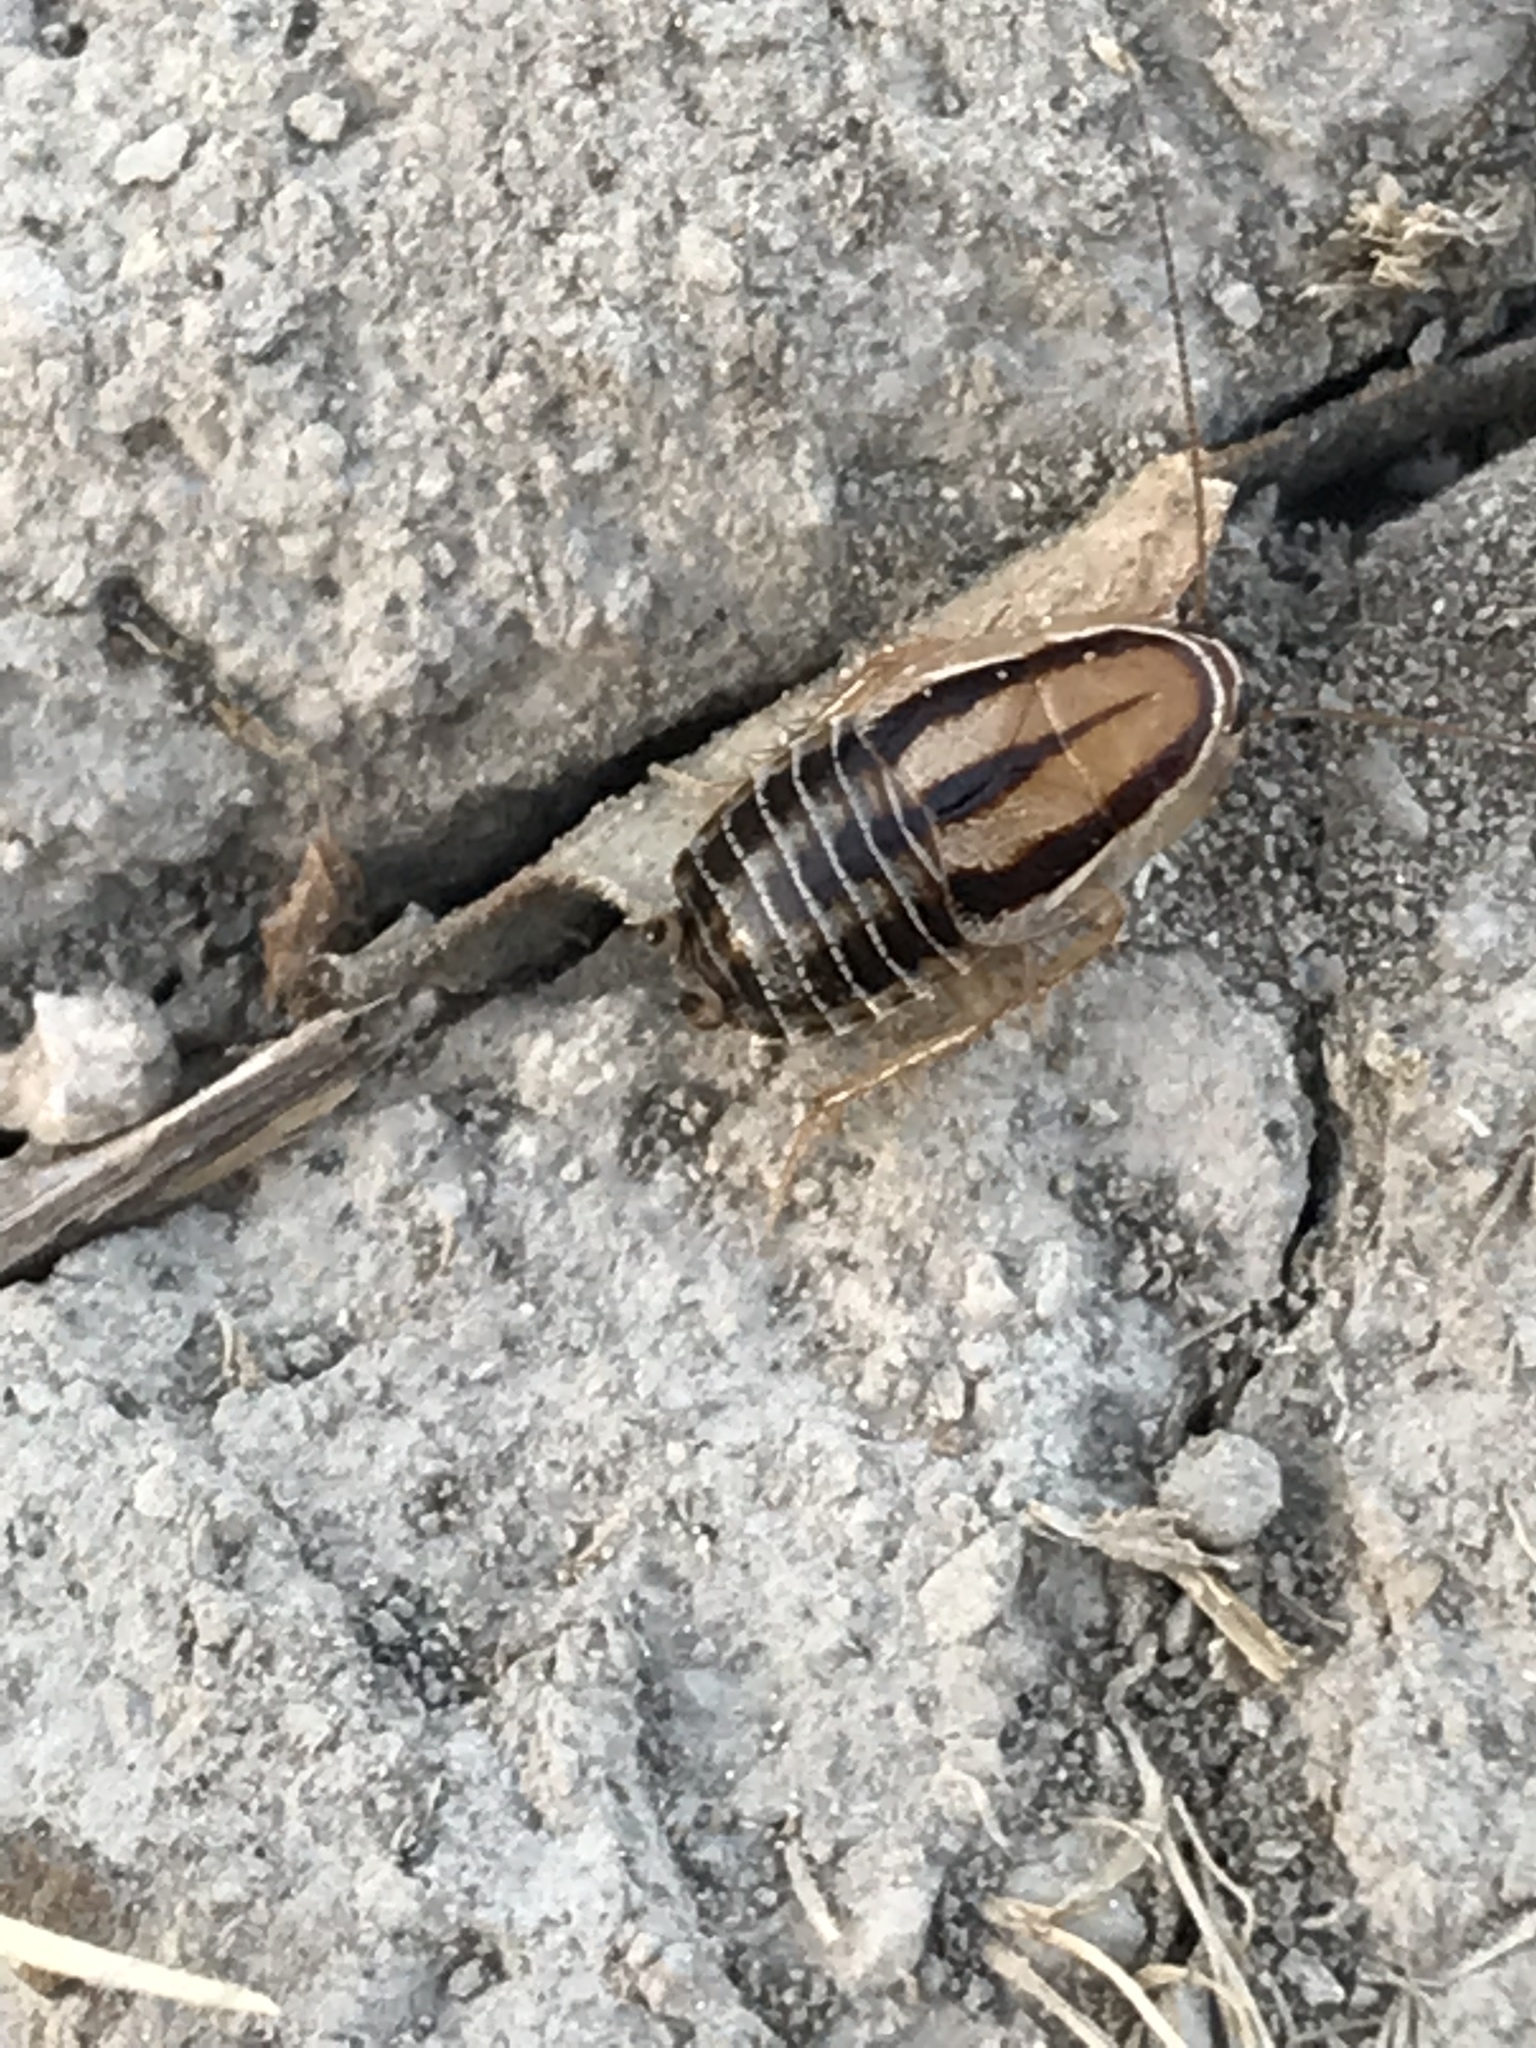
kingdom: Animalia
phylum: Arthropoda
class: Insecta
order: Blattodea
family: Ectobiidae
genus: Luridiblatta
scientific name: Luridiblatta trivittata
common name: Three-lined cockroach
